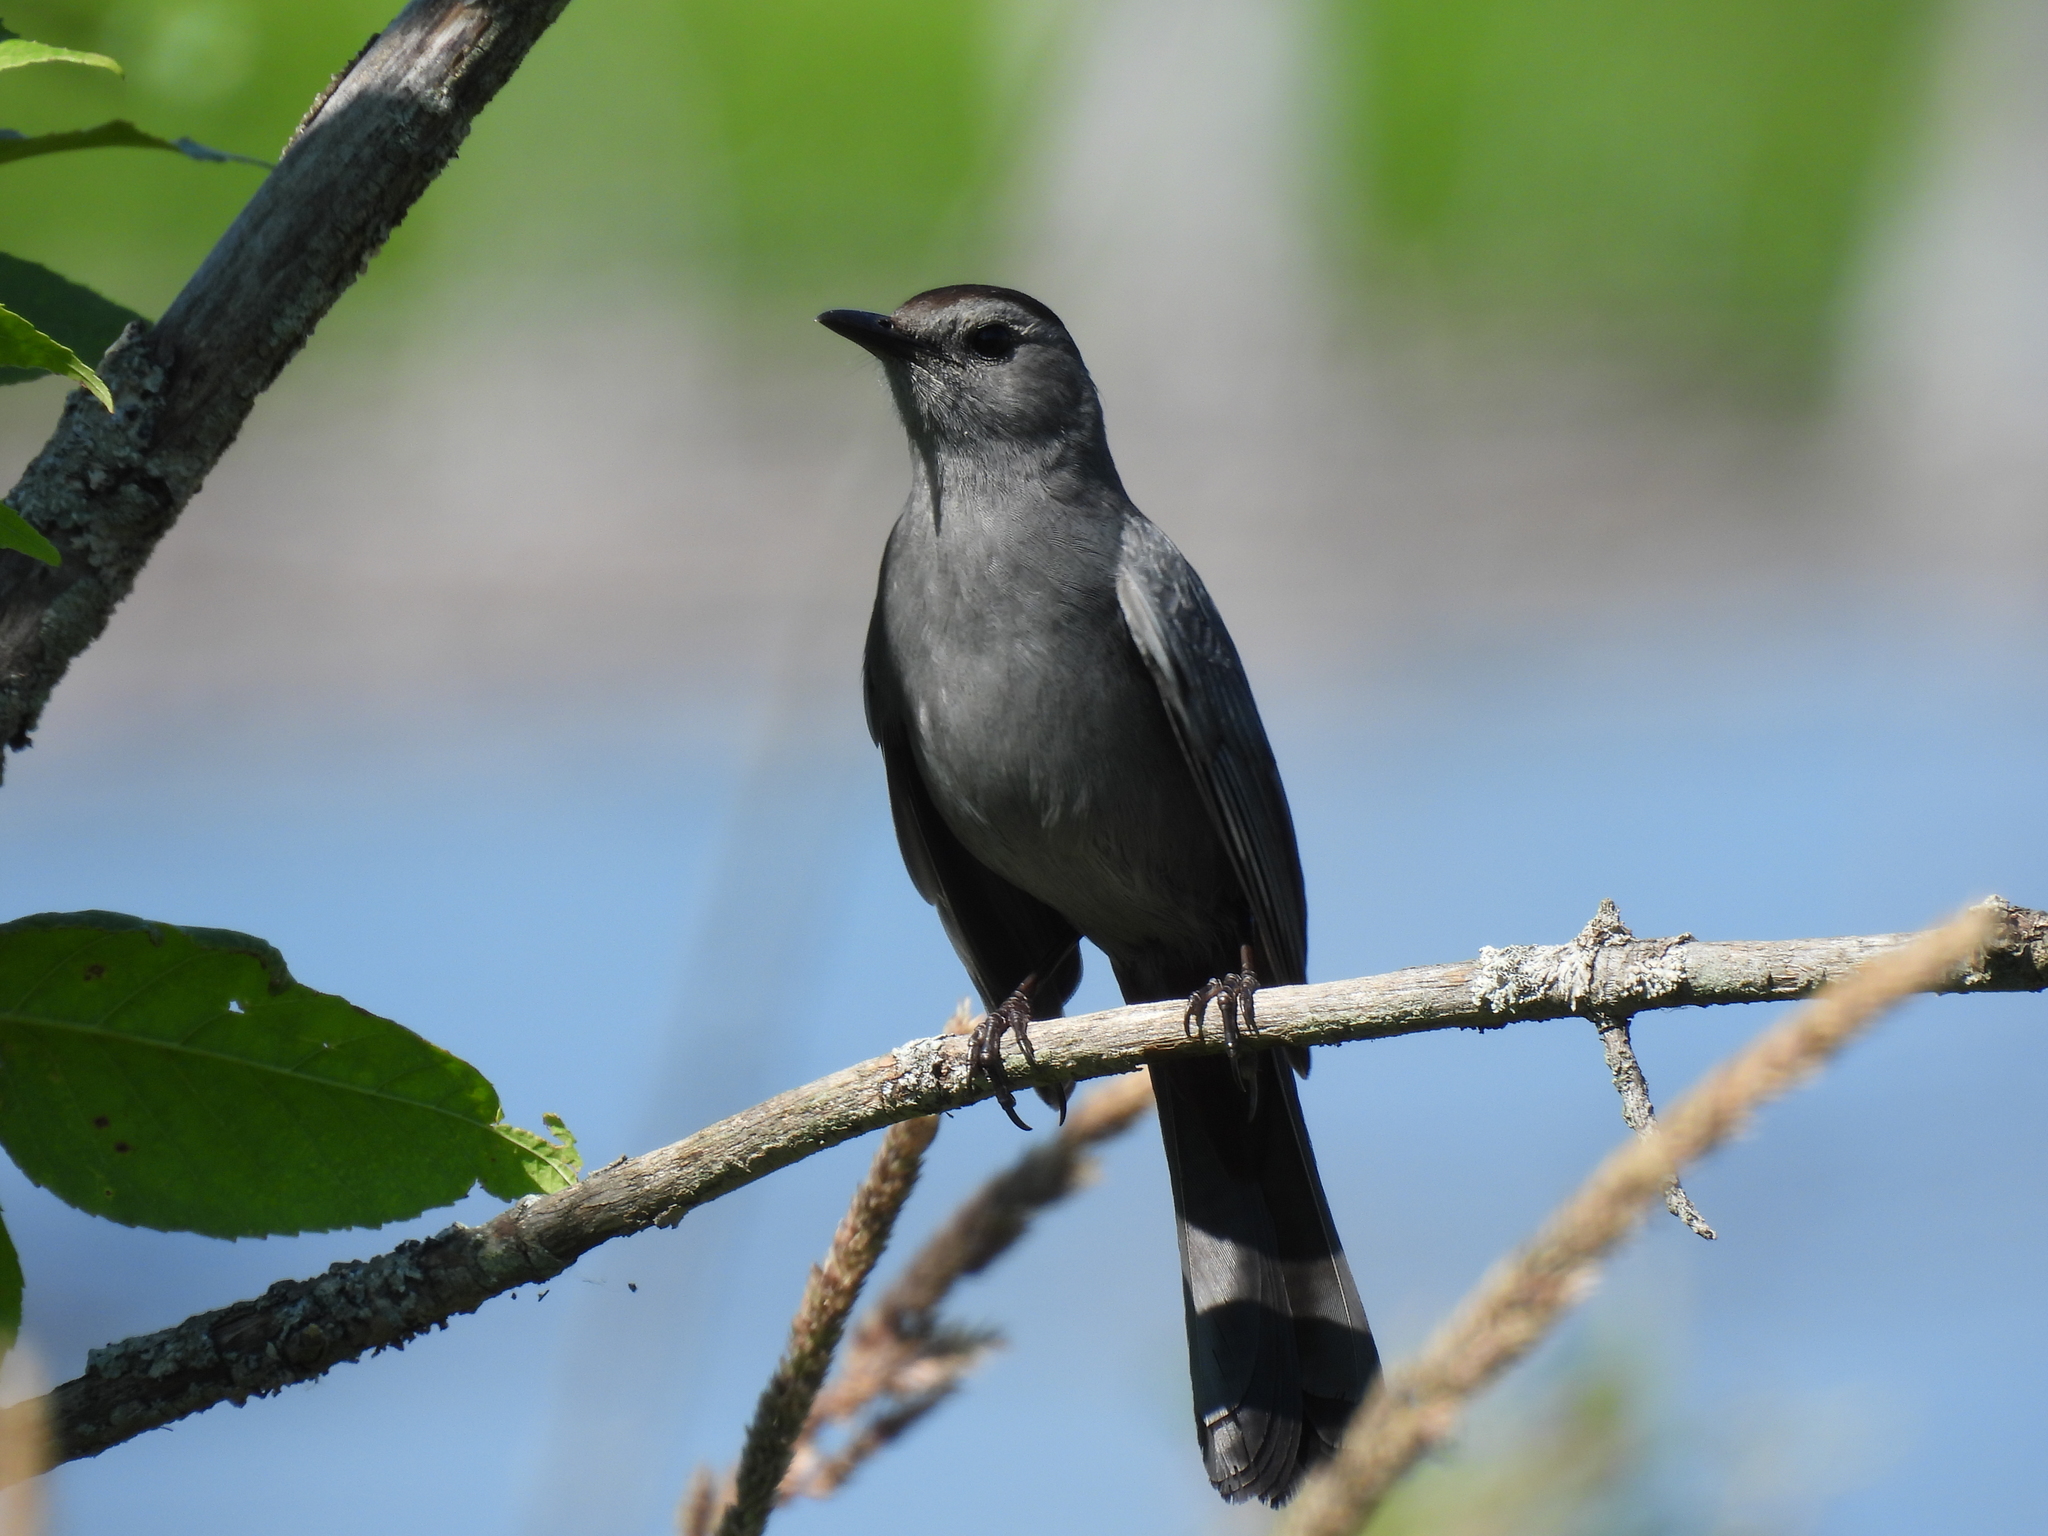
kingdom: Animalia
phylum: Chordata
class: Aves
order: Passeriformes
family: Mimidae
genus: Dumetella
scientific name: Dumetella carolinensis
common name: Gray catbird
